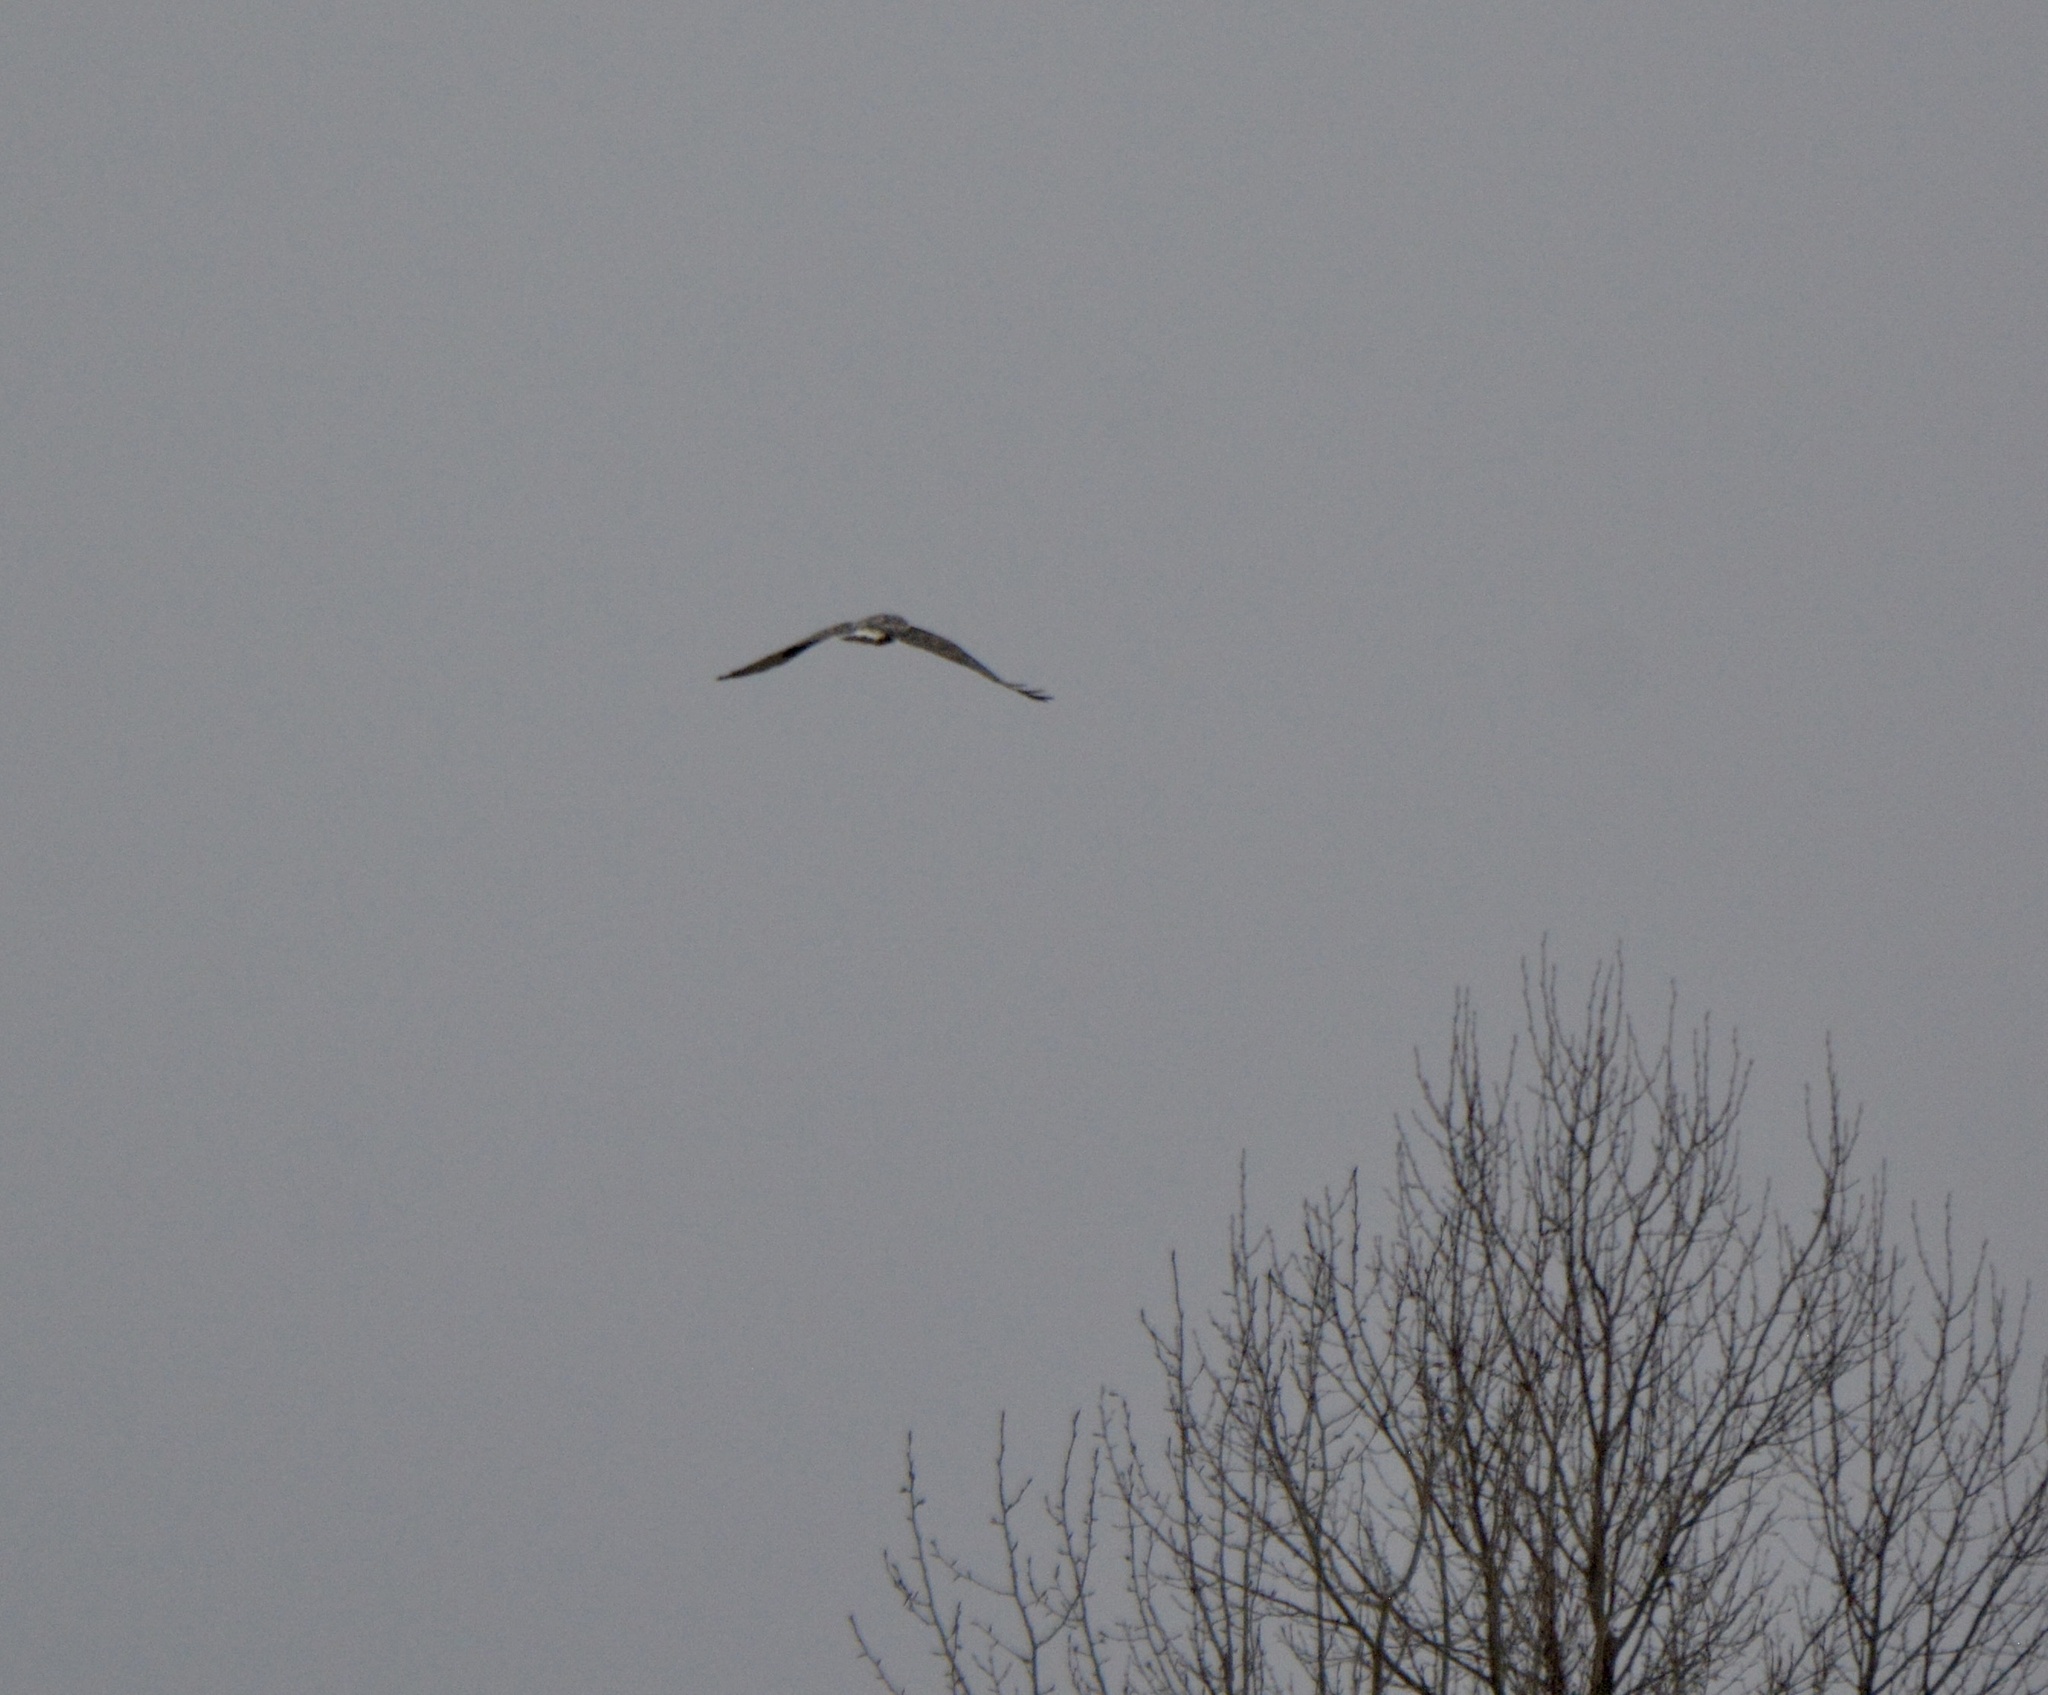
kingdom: Animalia
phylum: Chordata
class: Aves
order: Accipitriformes
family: Accipitridae
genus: Buteo
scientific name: Buteo lagopus
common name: Rough-legged buzzard
